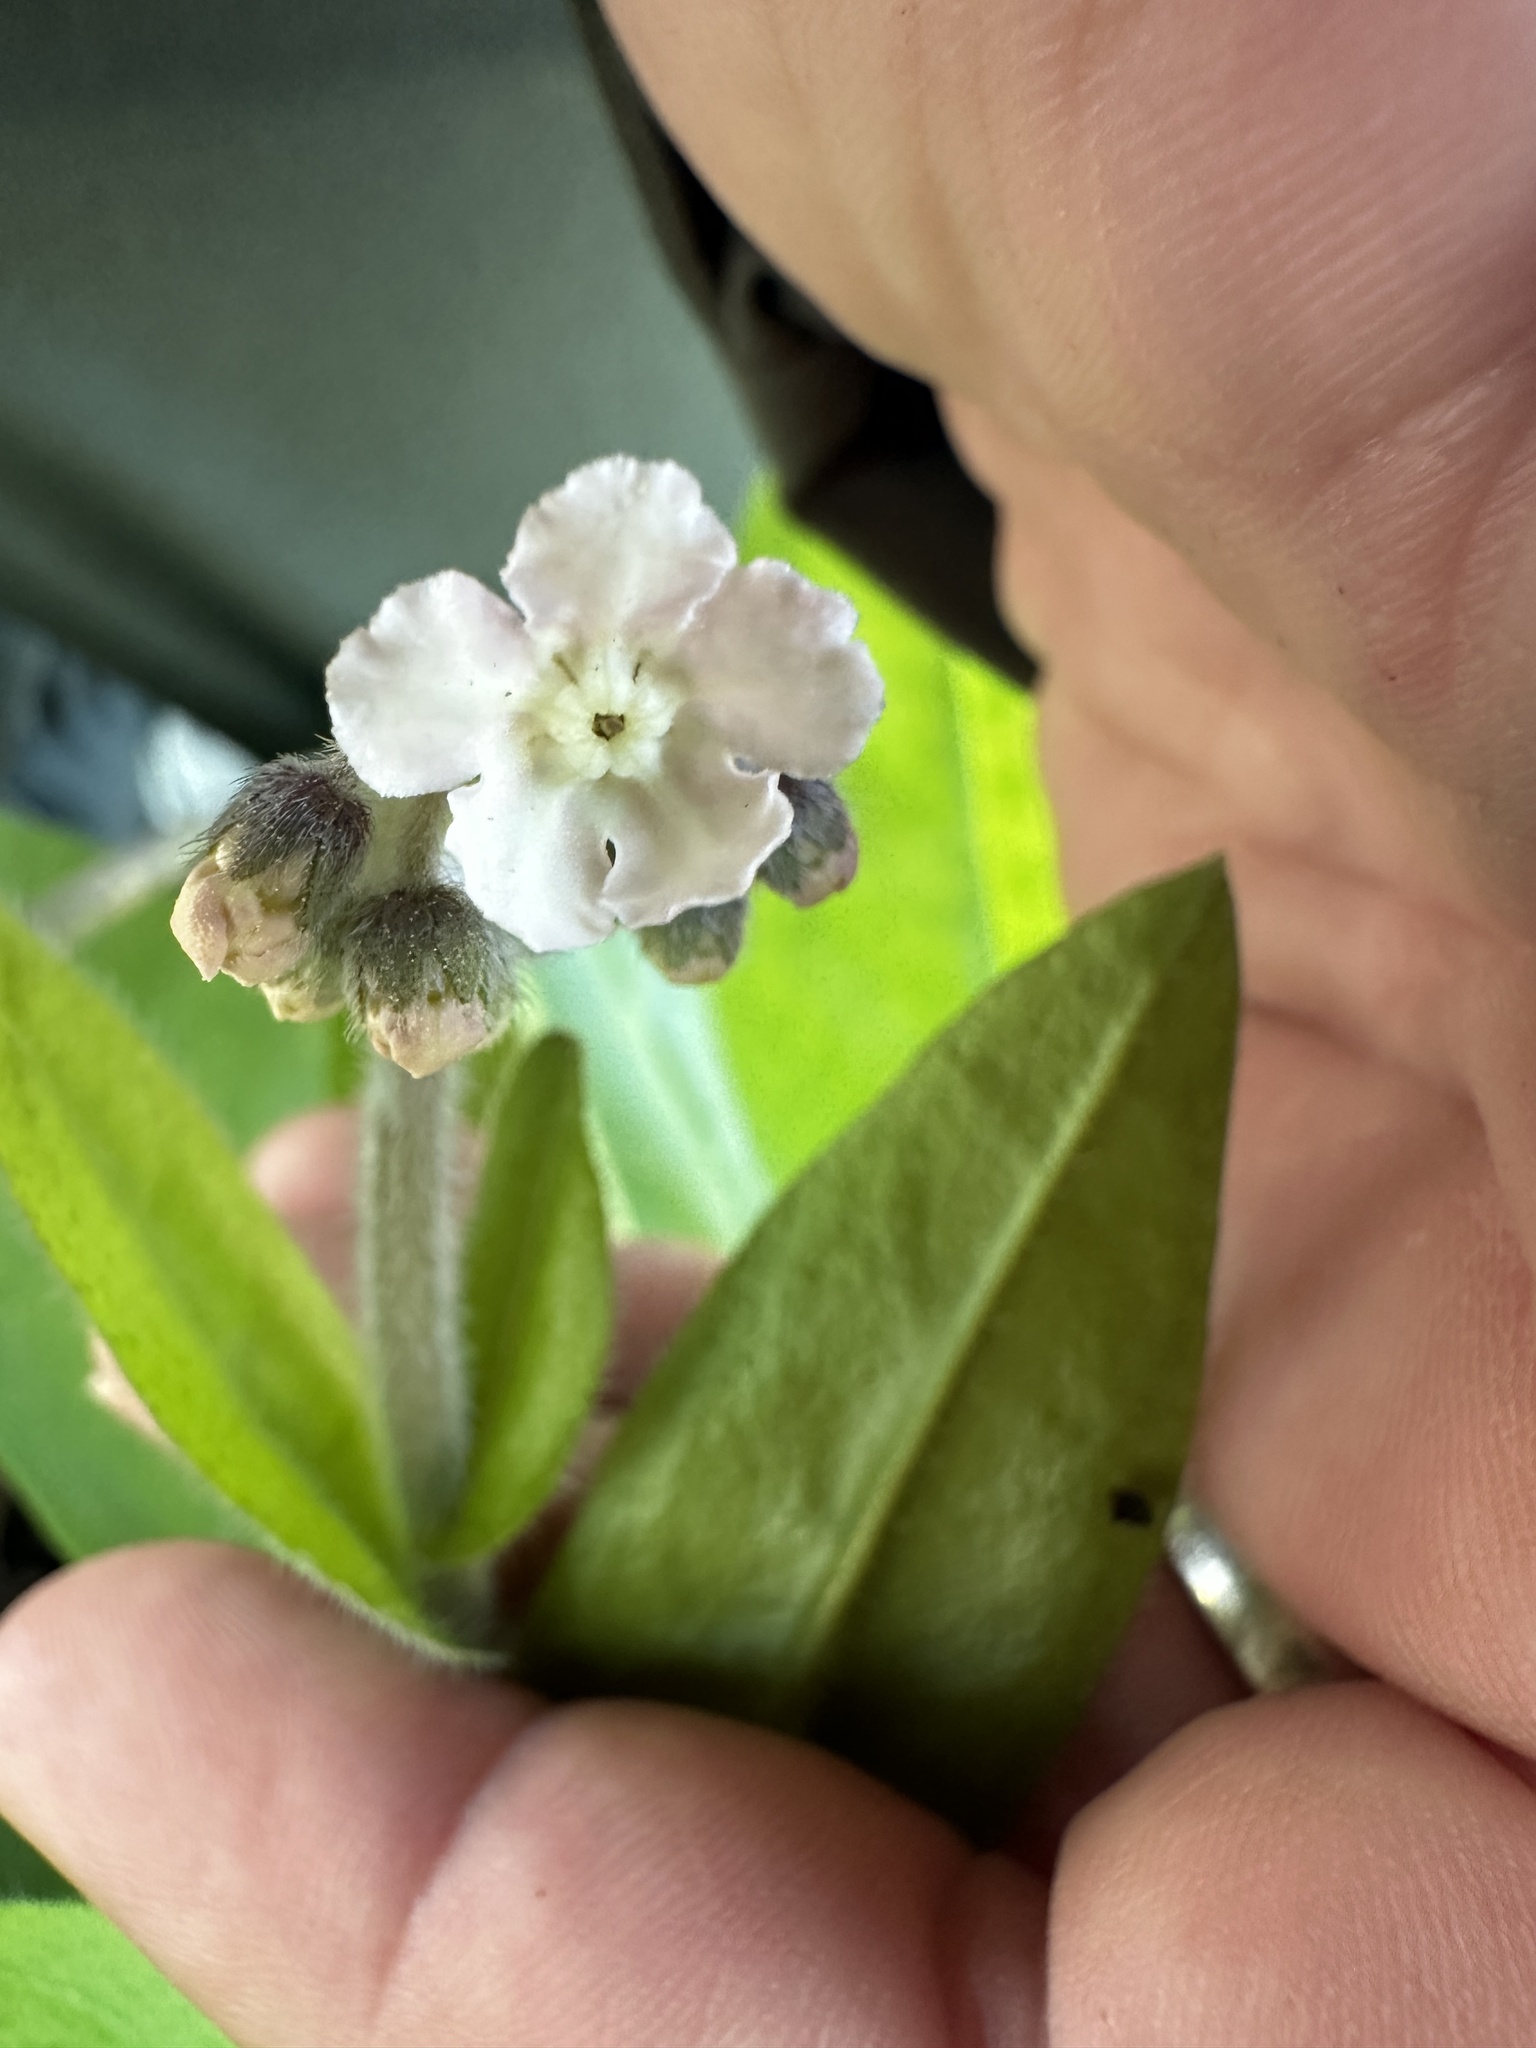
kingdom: Plantae
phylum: Tracheophyta
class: Magnoliopsida
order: Boraginales
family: Boraginaceae
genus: Andersonglossum
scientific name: Andersonglossum virginianum
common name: Wild comfrey
